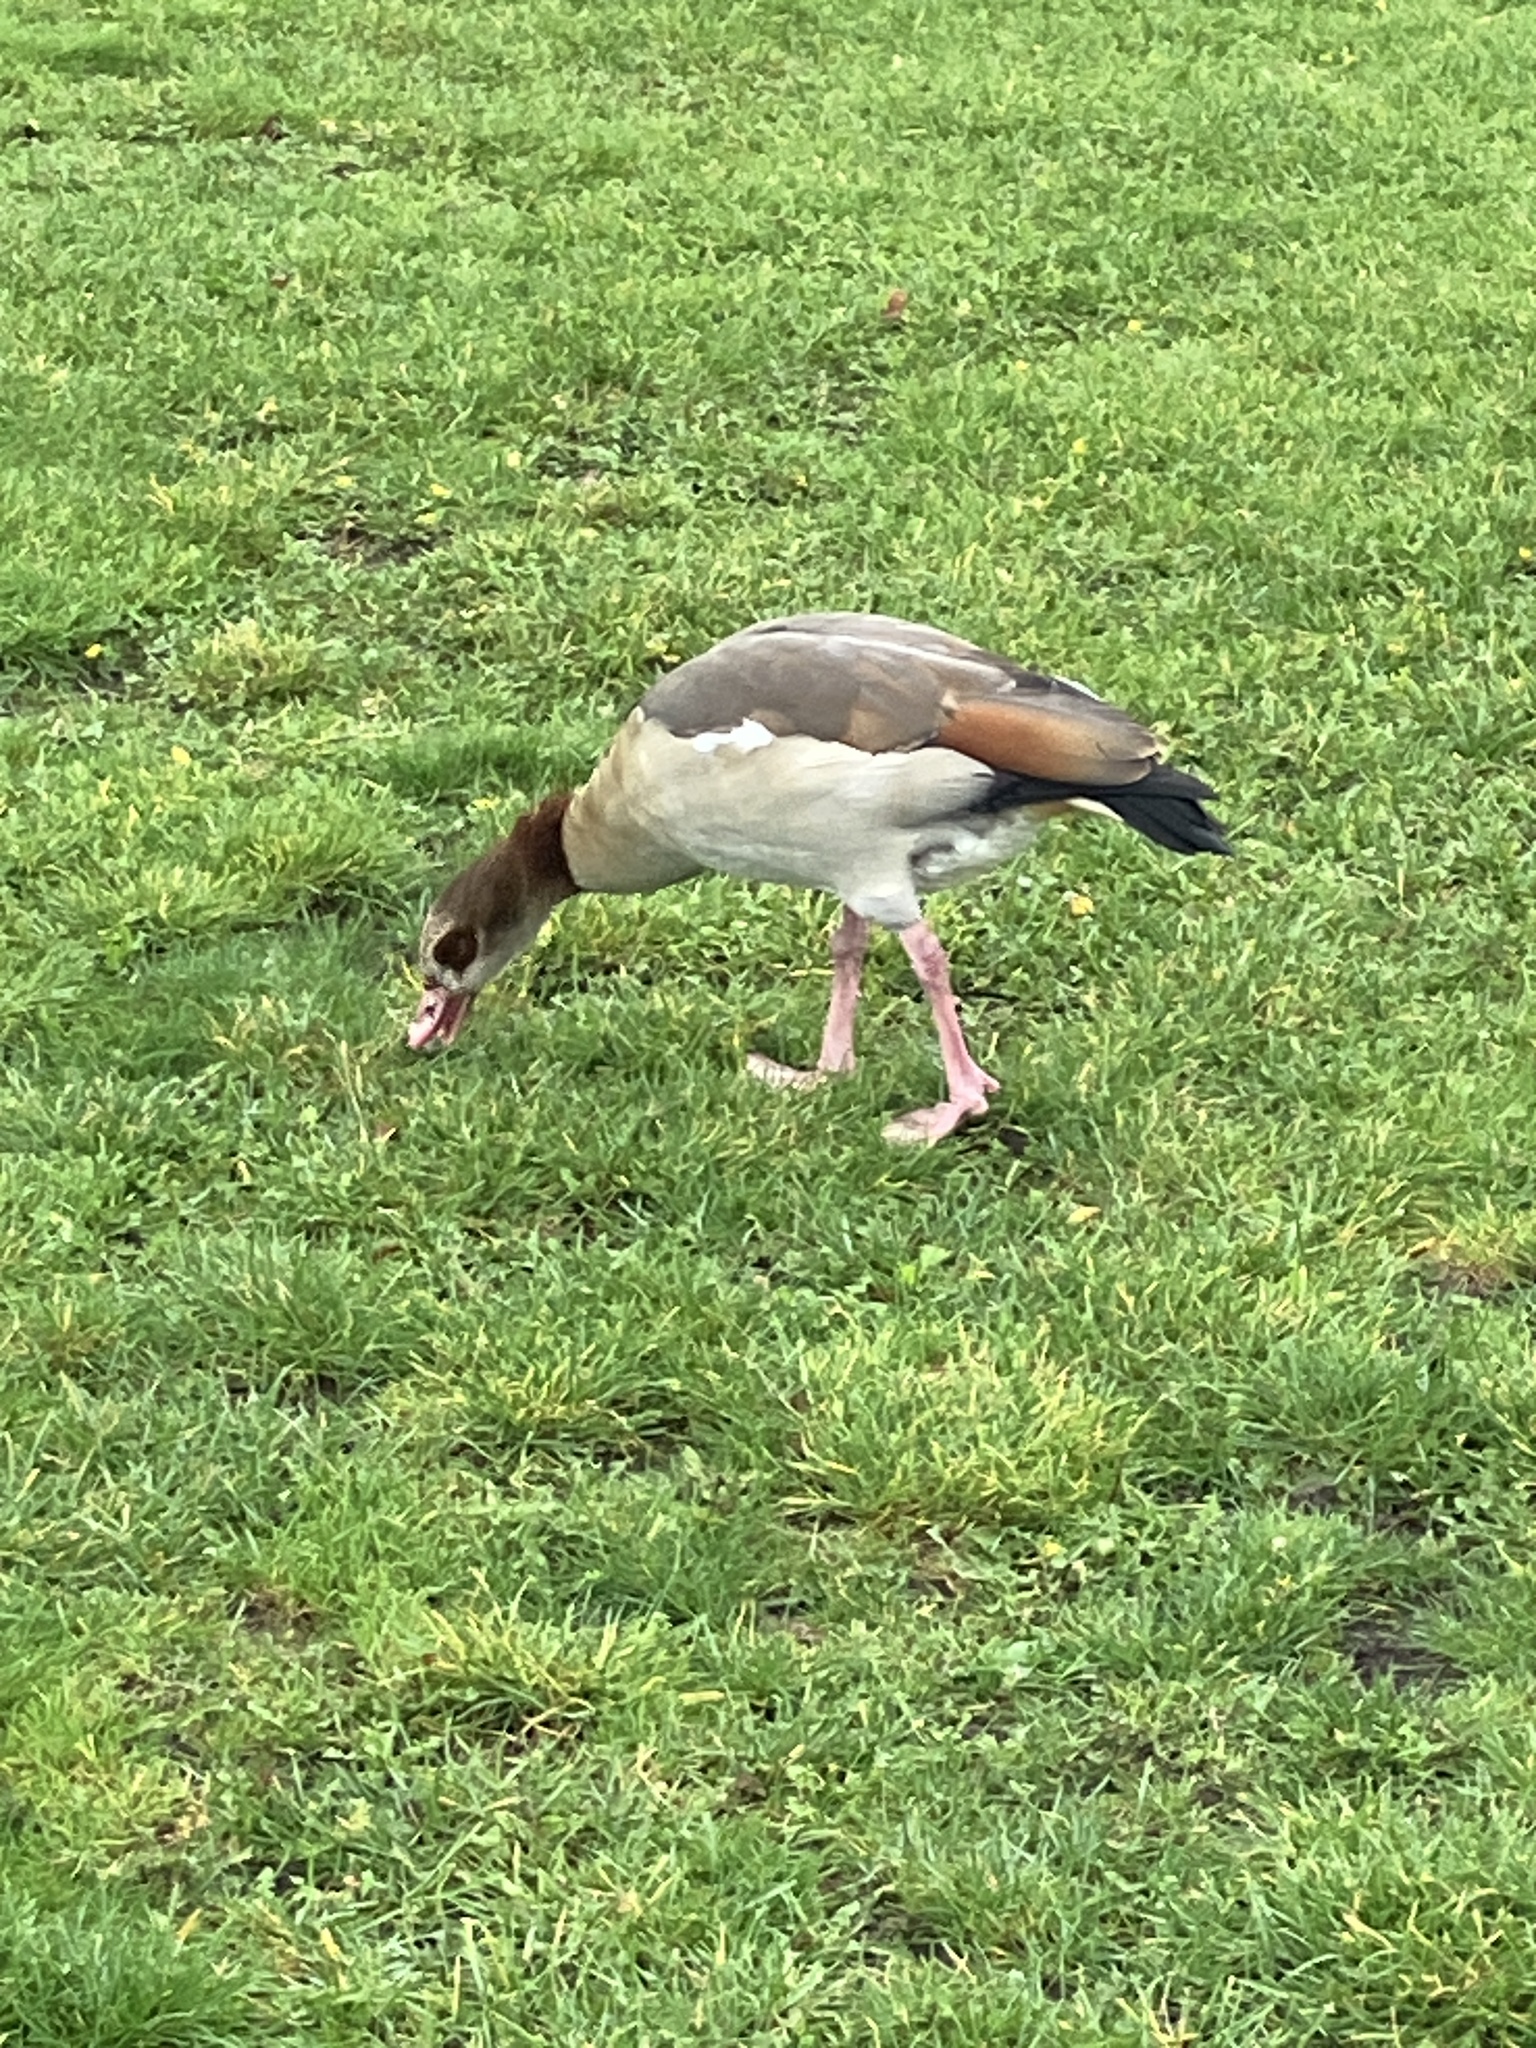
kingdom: Animalia
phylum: Chordata
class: Aves
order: Anseriformes
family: Anatidae
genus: Alopochen
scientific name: Alopochen aegyptiaca
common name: Egyptian goose
